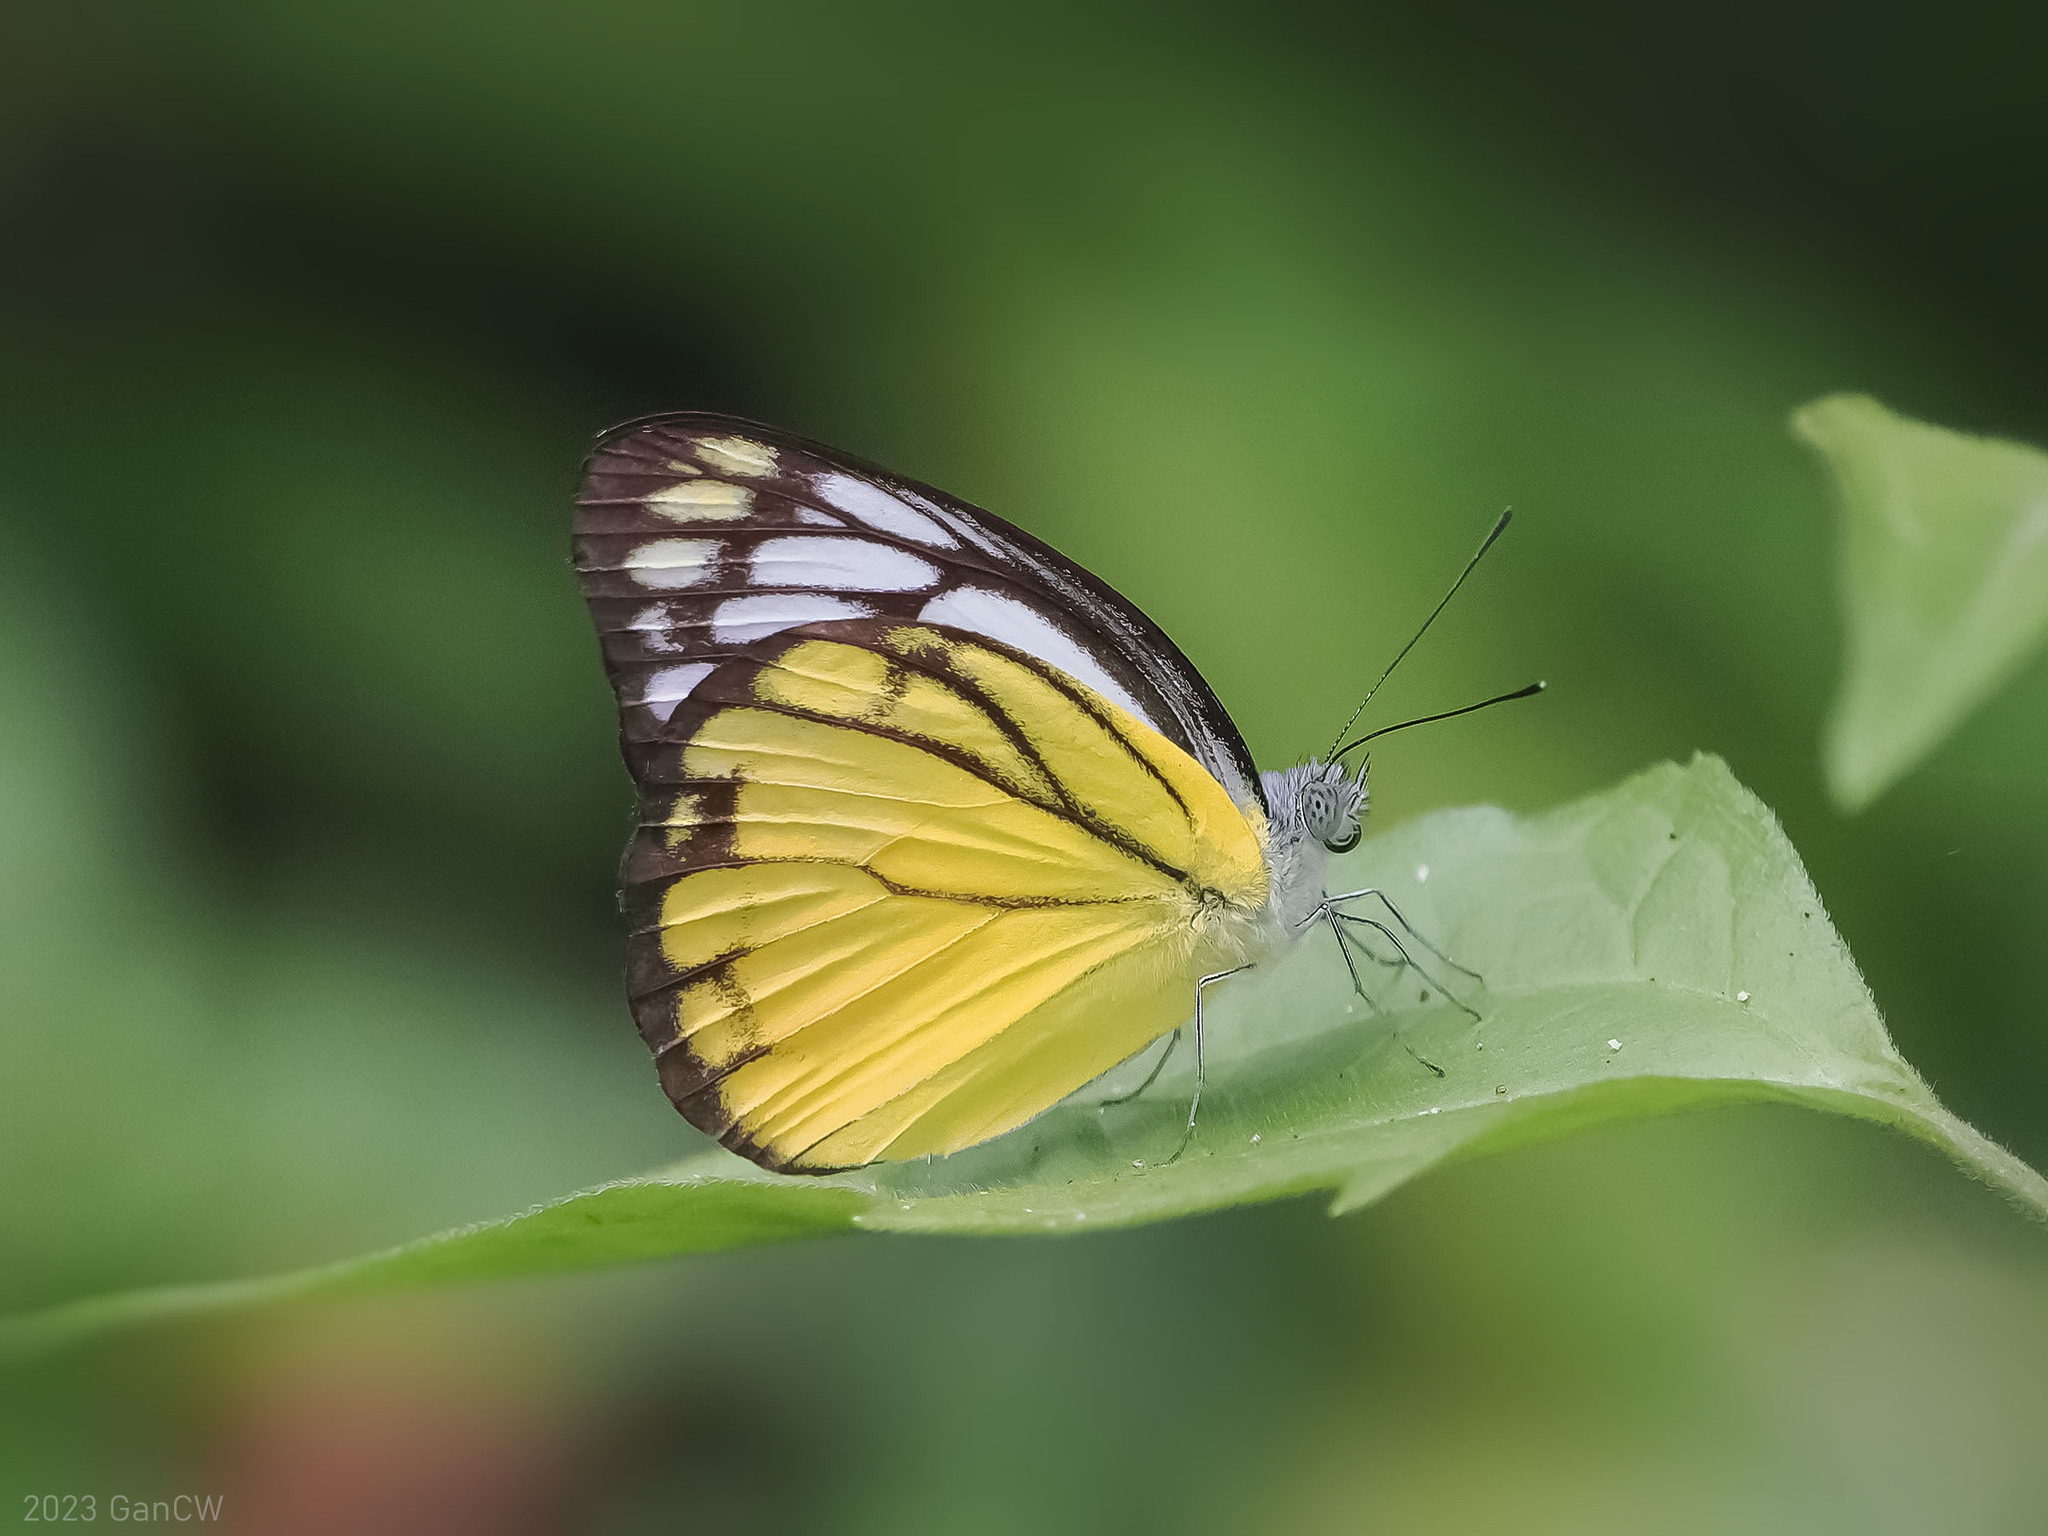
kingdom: Animalia
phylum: Arthropoda
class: Insecta
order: Lepidoptera
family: Pieridae
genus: Cepora
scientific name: Cepora aspasia
